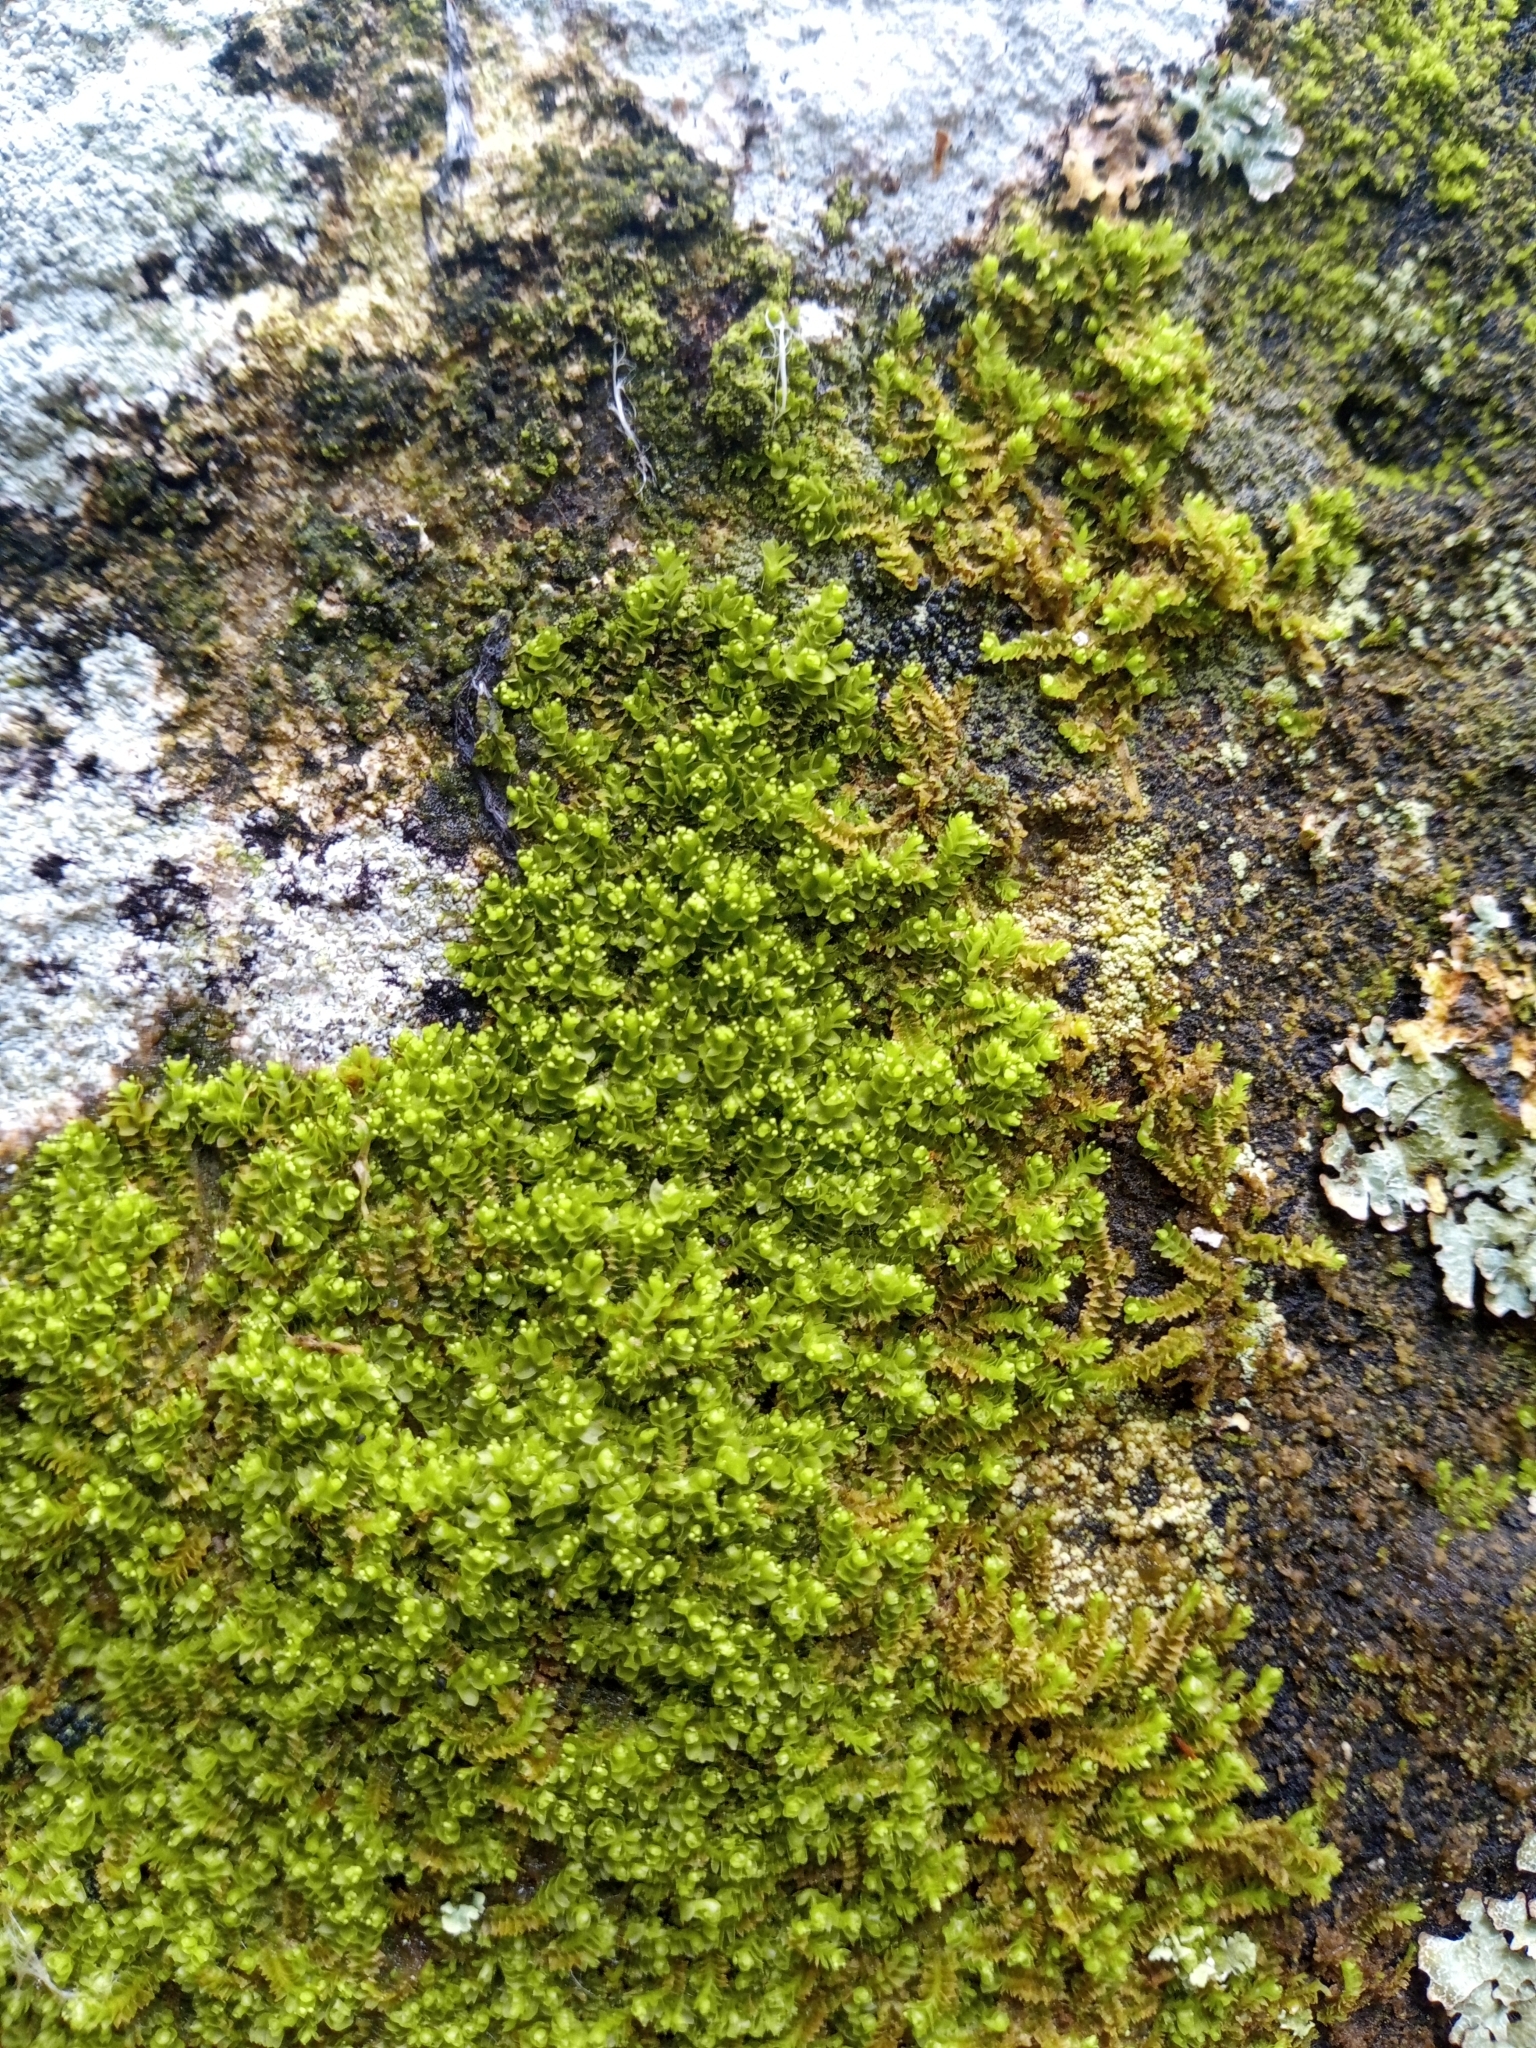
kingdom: Plantae
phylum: Marchantiophyta
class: Jungermanniopsida
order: Jungermanniales
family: Lophoziaceae
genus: Lophozia
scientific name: Lophozia ventricosa
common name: Tumid notchwort
